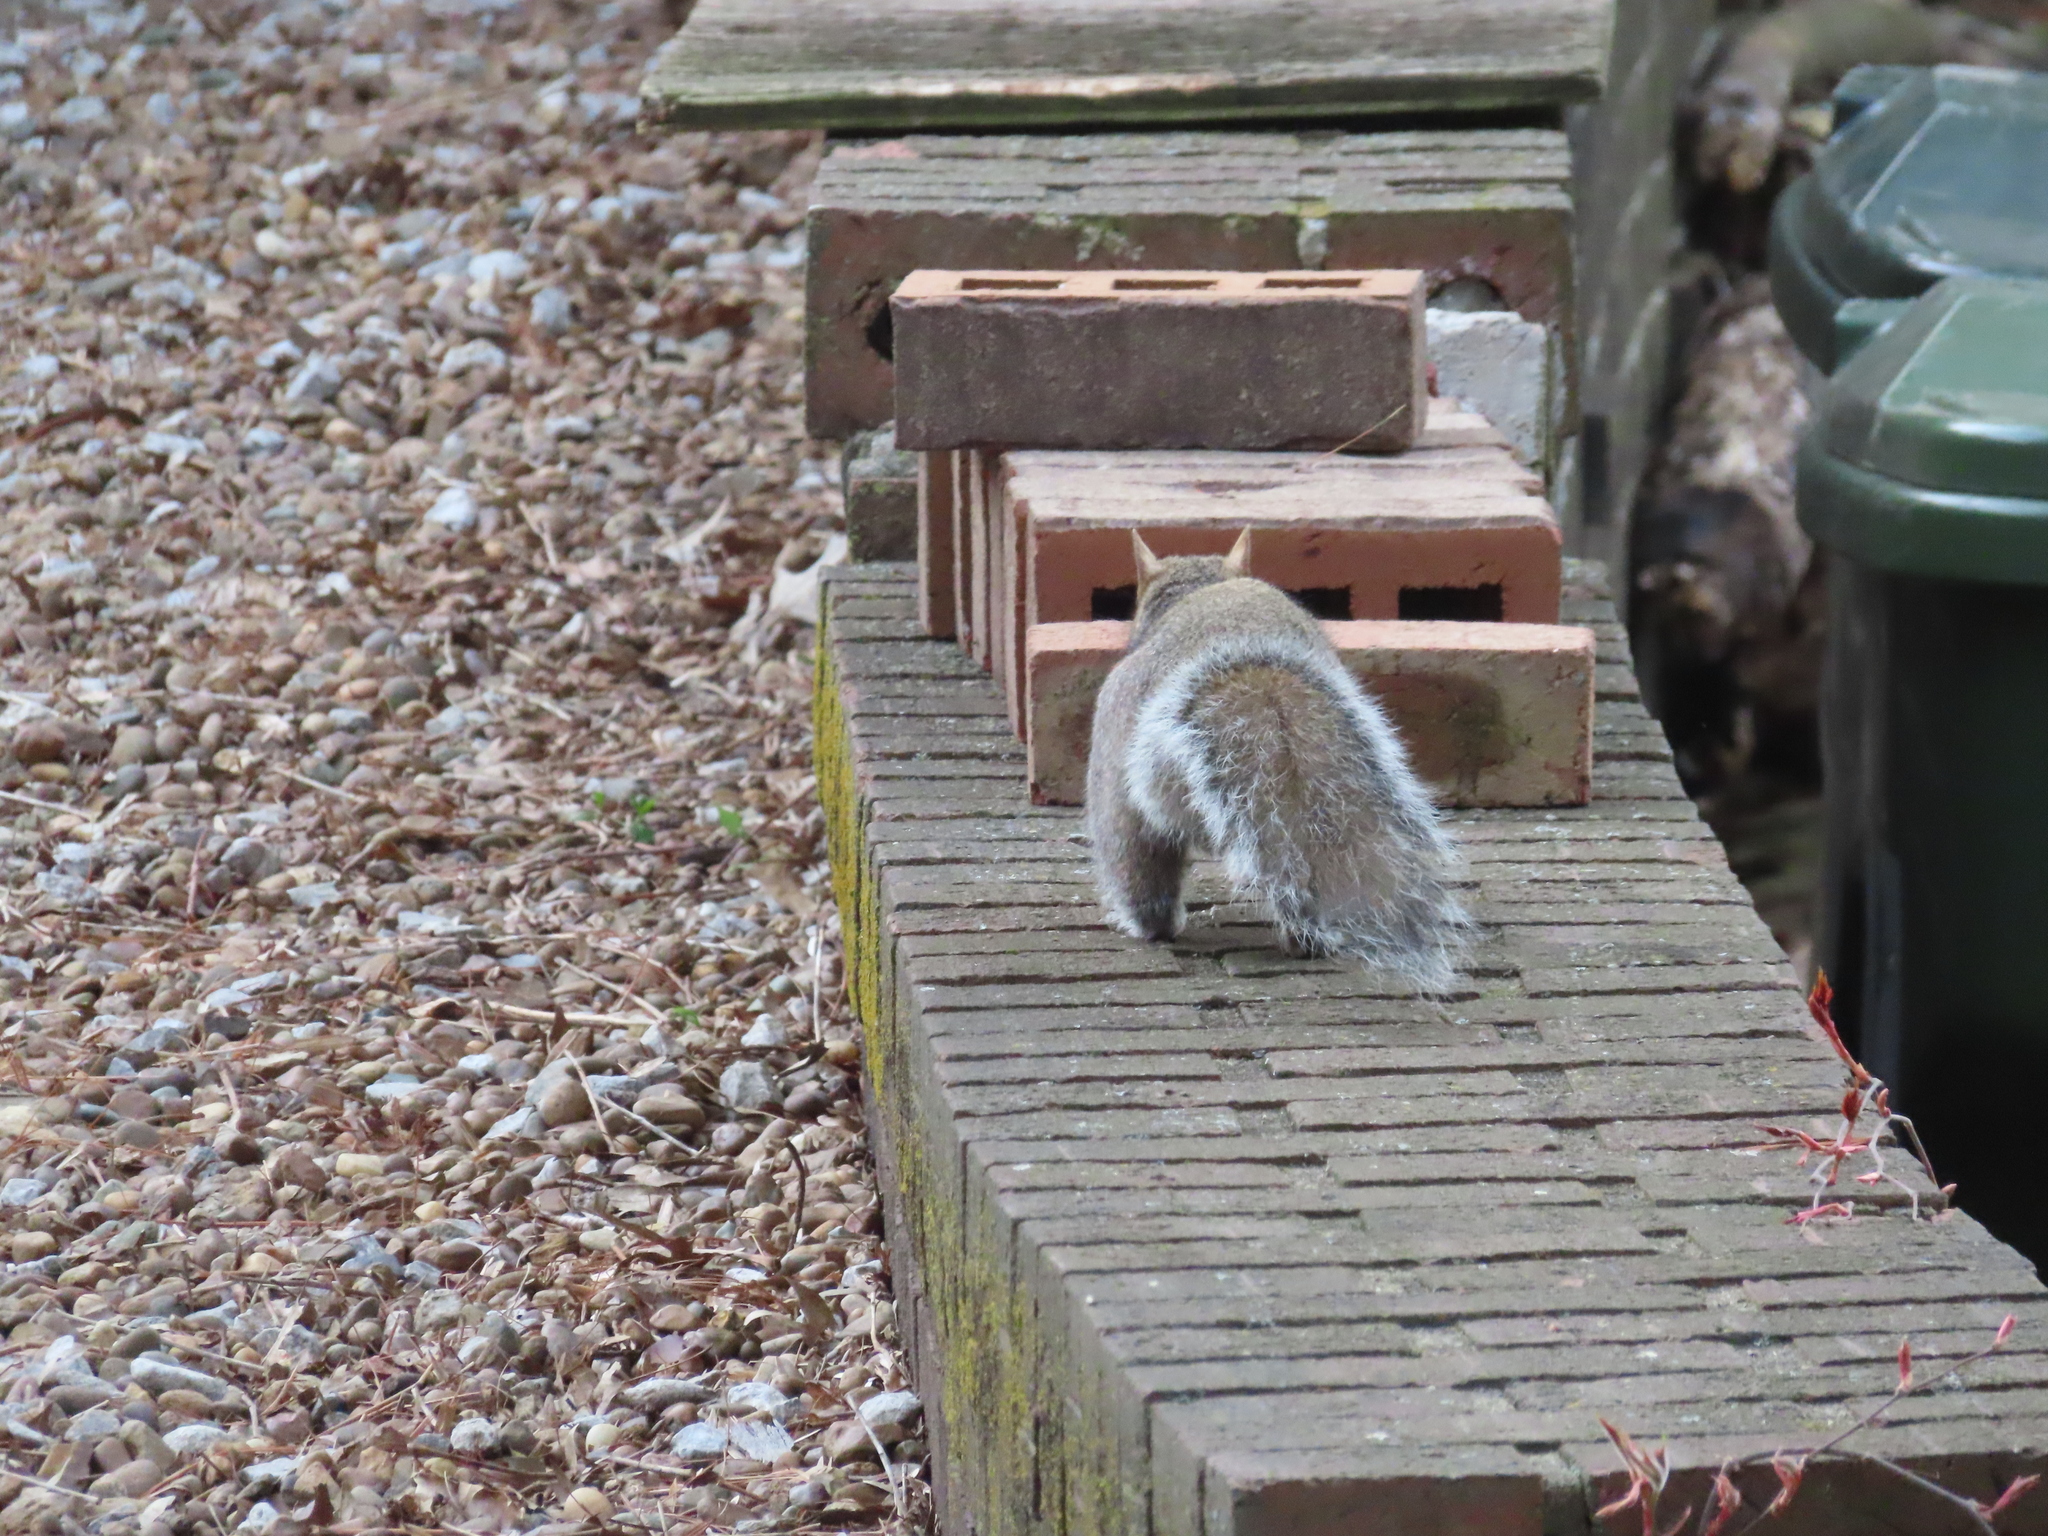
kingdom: Animalia
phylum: Chordata
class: Mammalia
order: Rodentia
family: Sciuridae
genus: Sciurus
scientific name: Sciurus carolinensis
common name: Eastern gray squirrel
